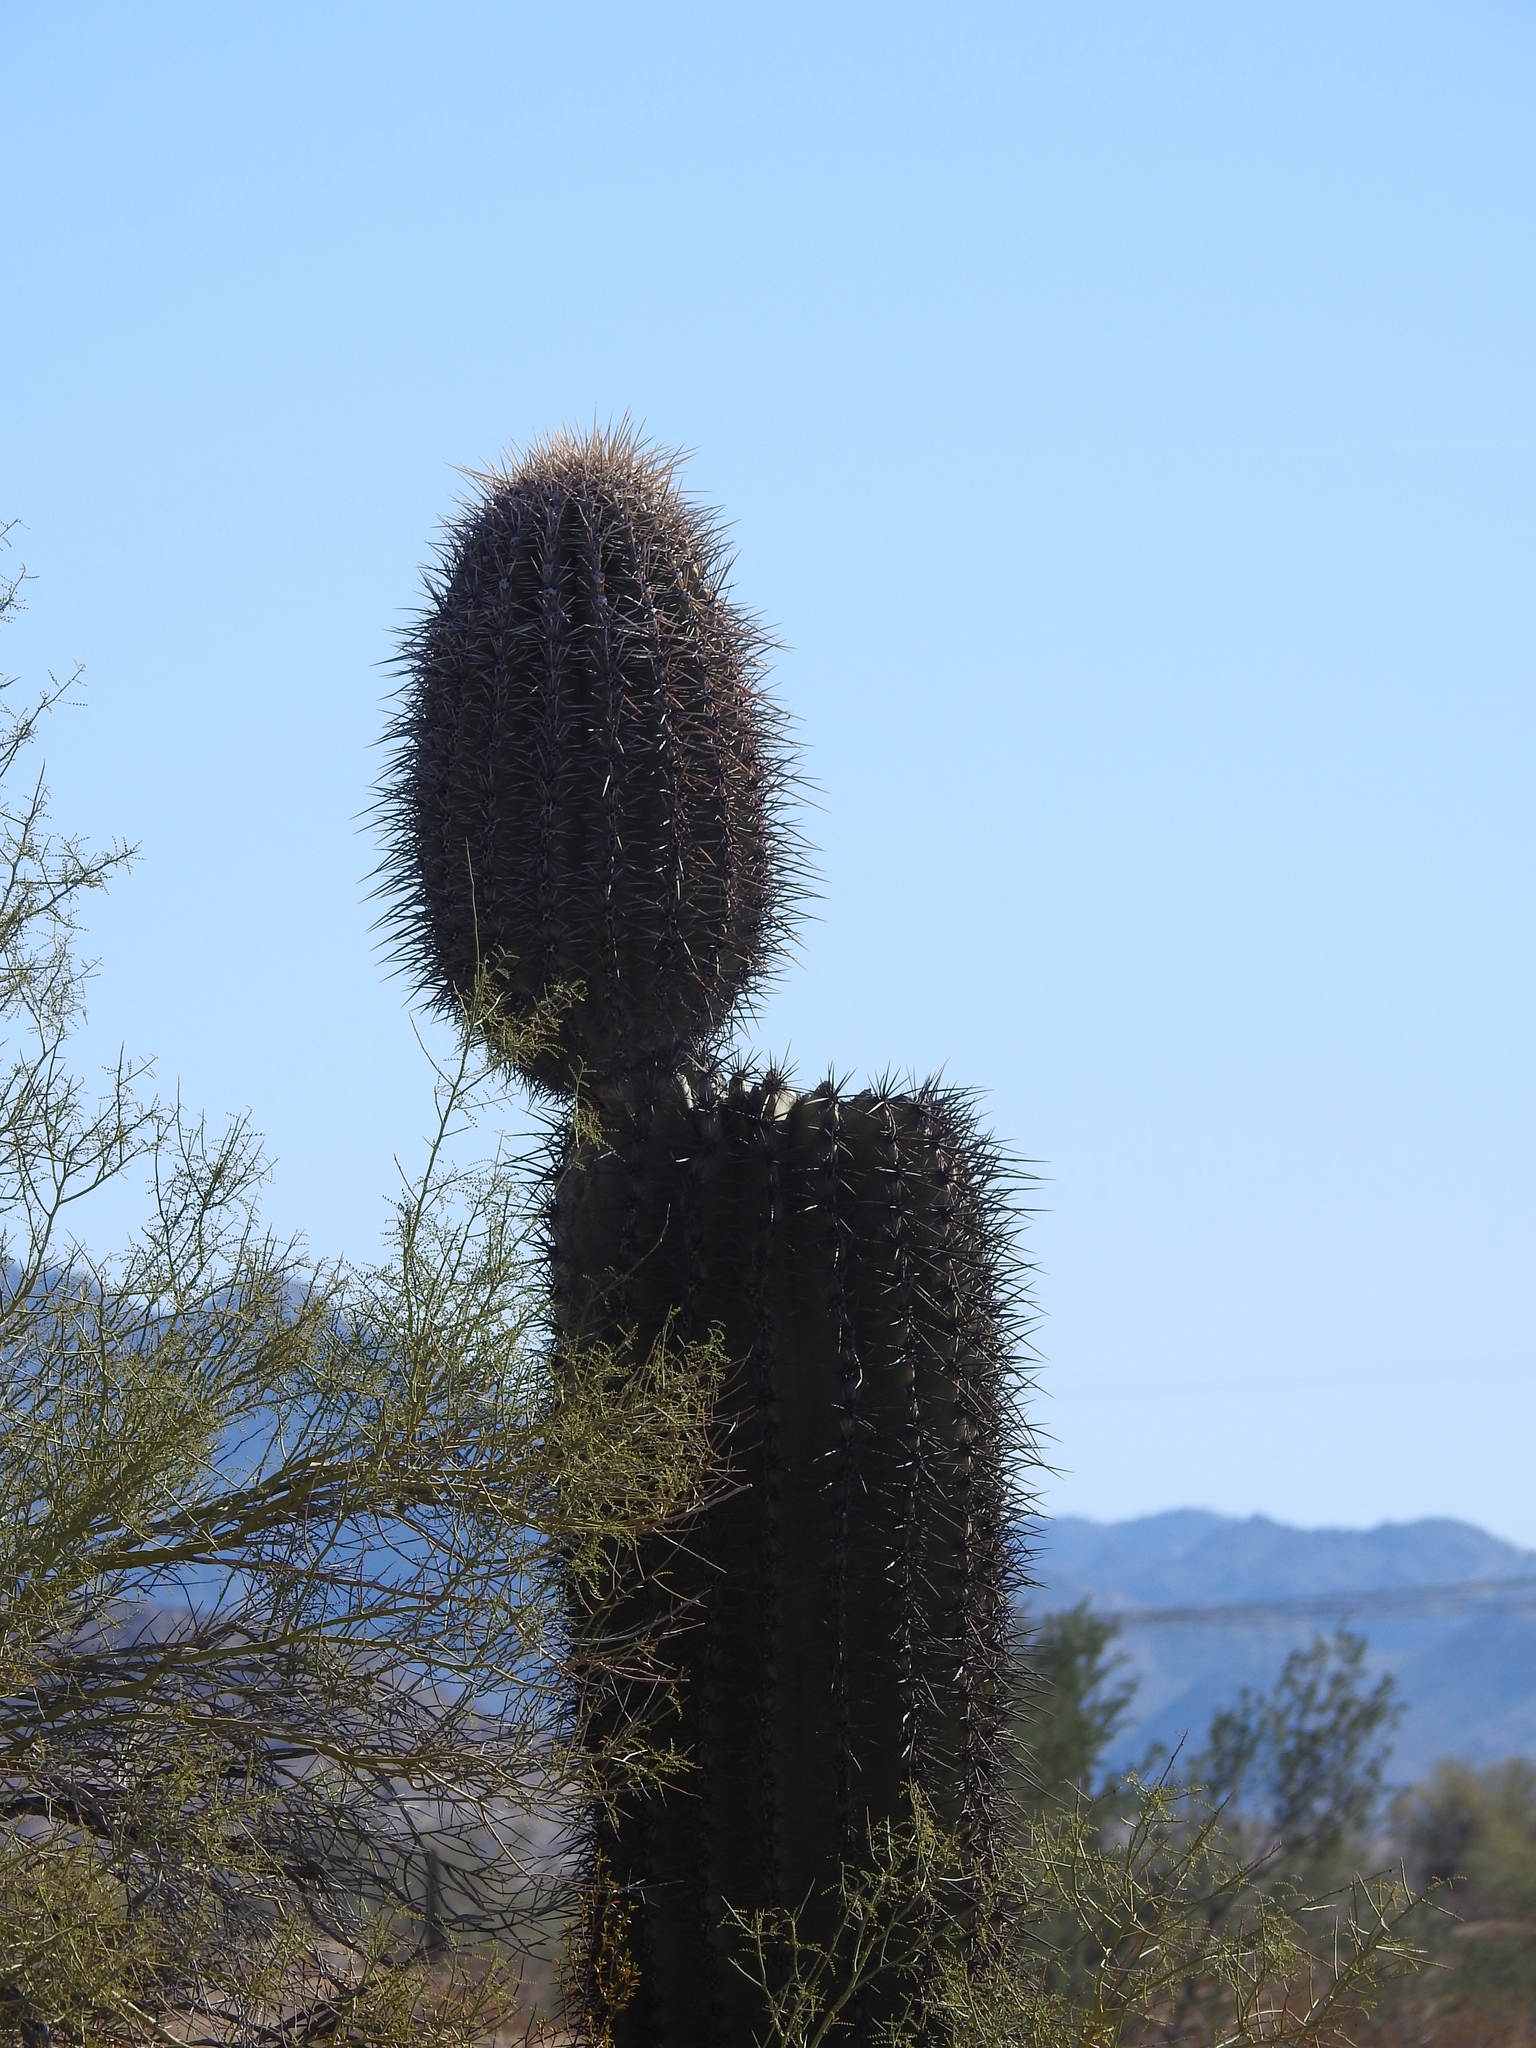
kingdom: Plantae
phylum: Tracheophyta
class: Magnoliopsida
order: Caryophyllales
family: Cactaceae
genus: Carnegiea
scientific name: Carnegiea gigantea
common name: Saguaro
